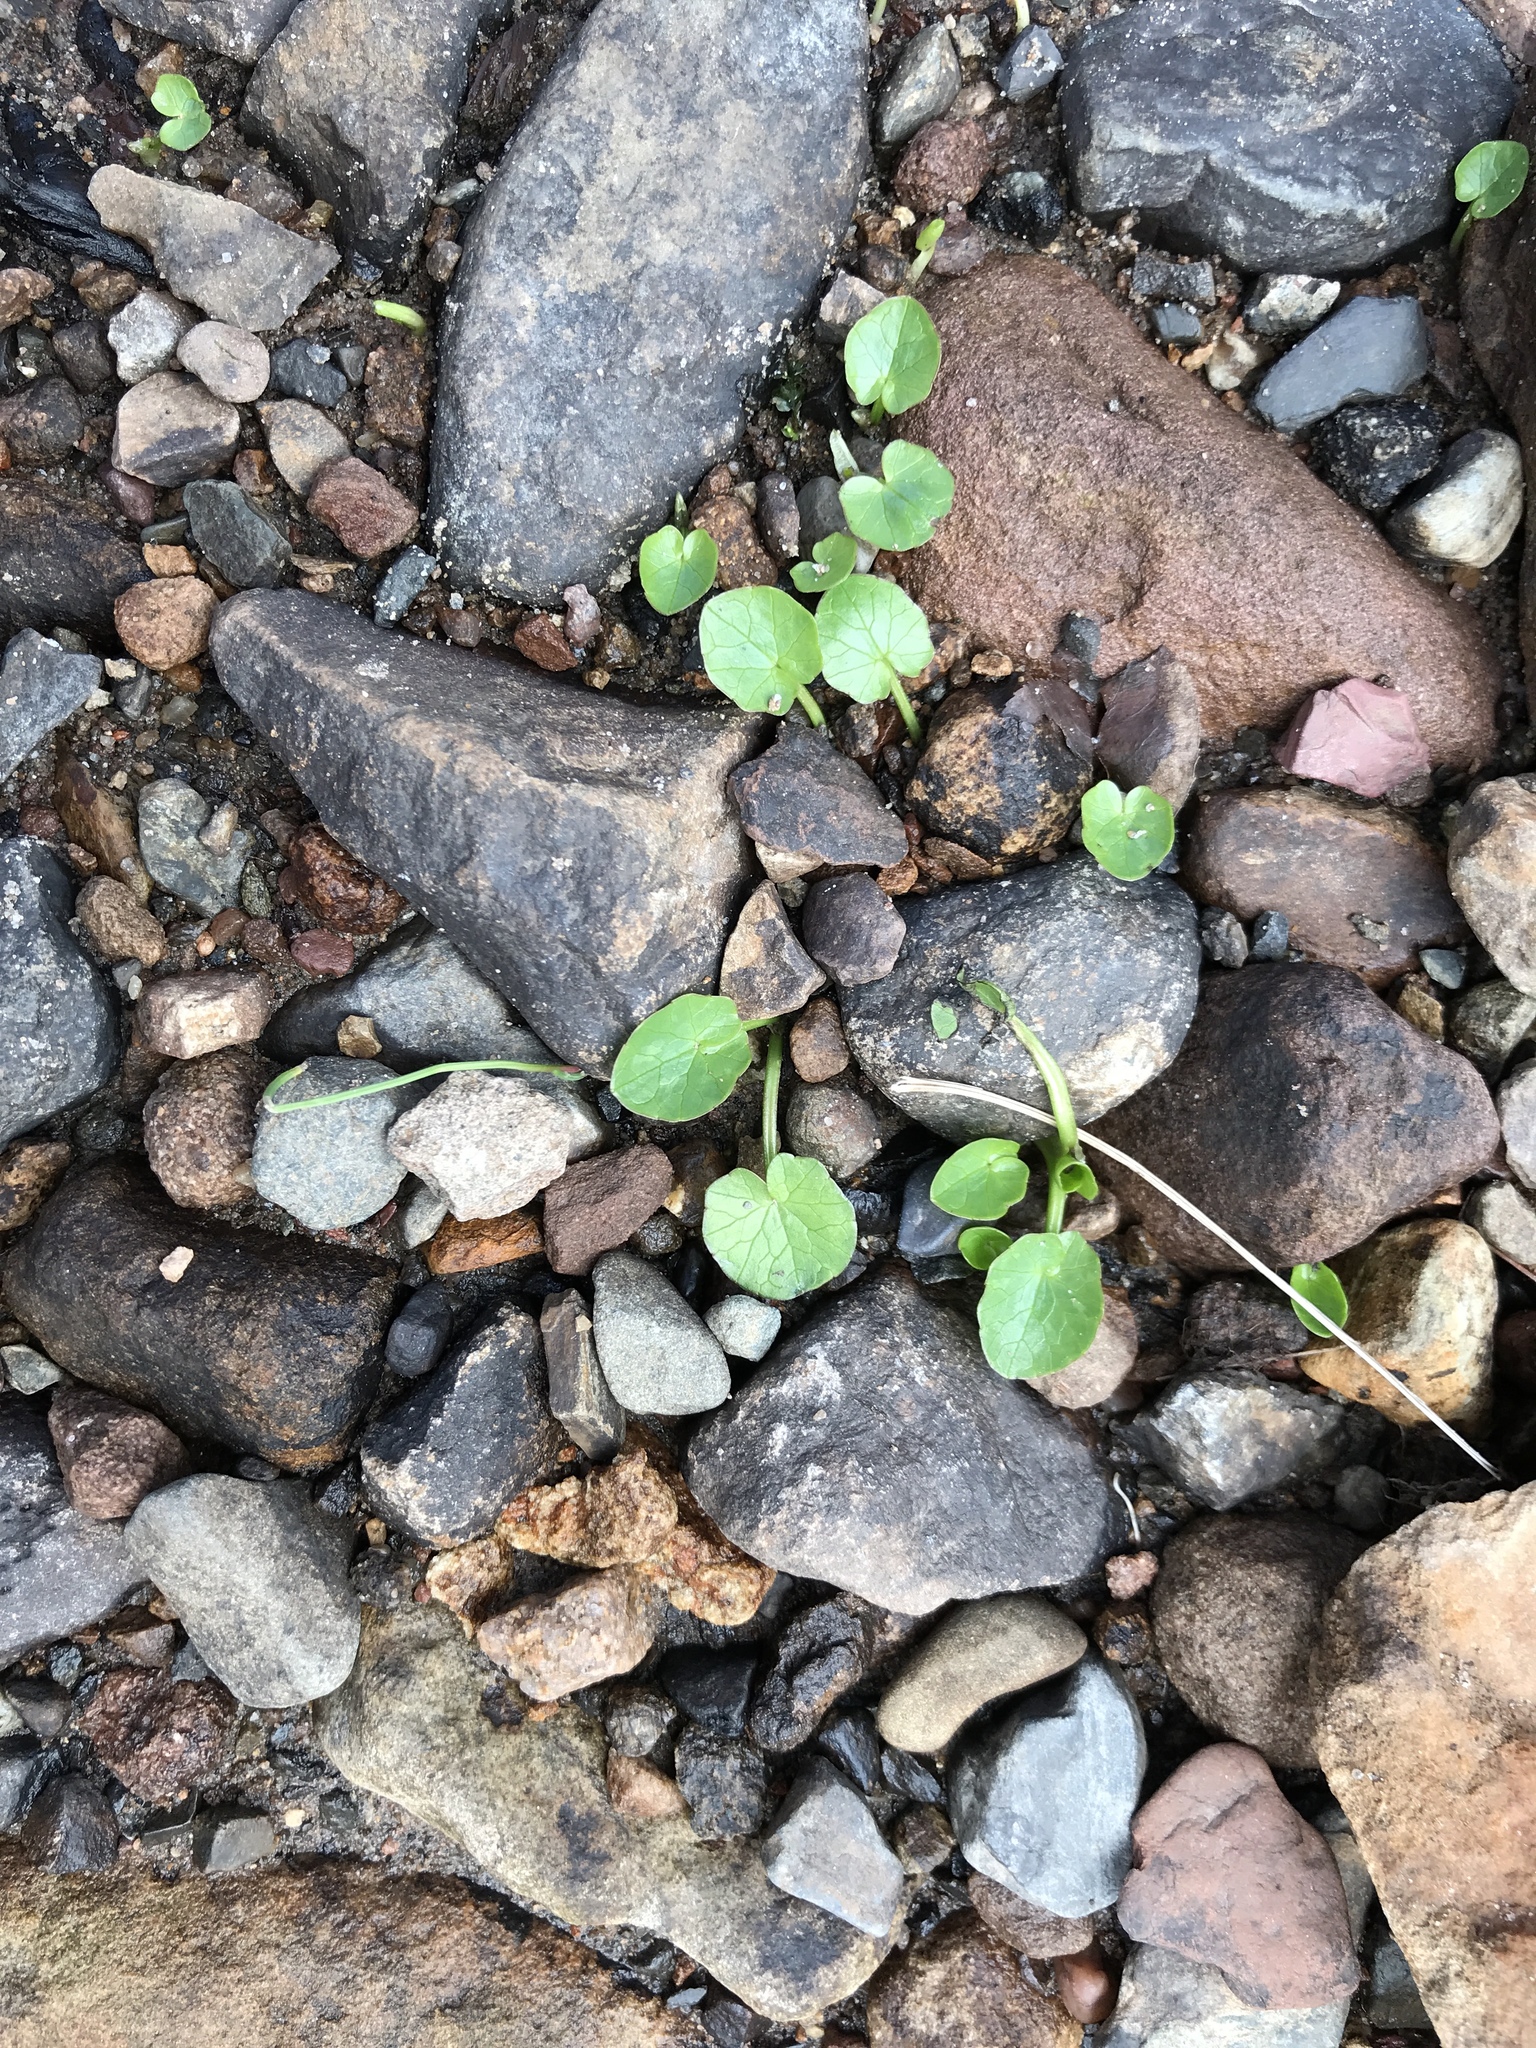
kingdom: Plantae
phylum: Tracheophyta
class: Magnoliopsida
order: Ranunculales
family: Ranunculaceae
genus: Ficaria
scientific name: Ficaria verna
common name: Lesser celandine
